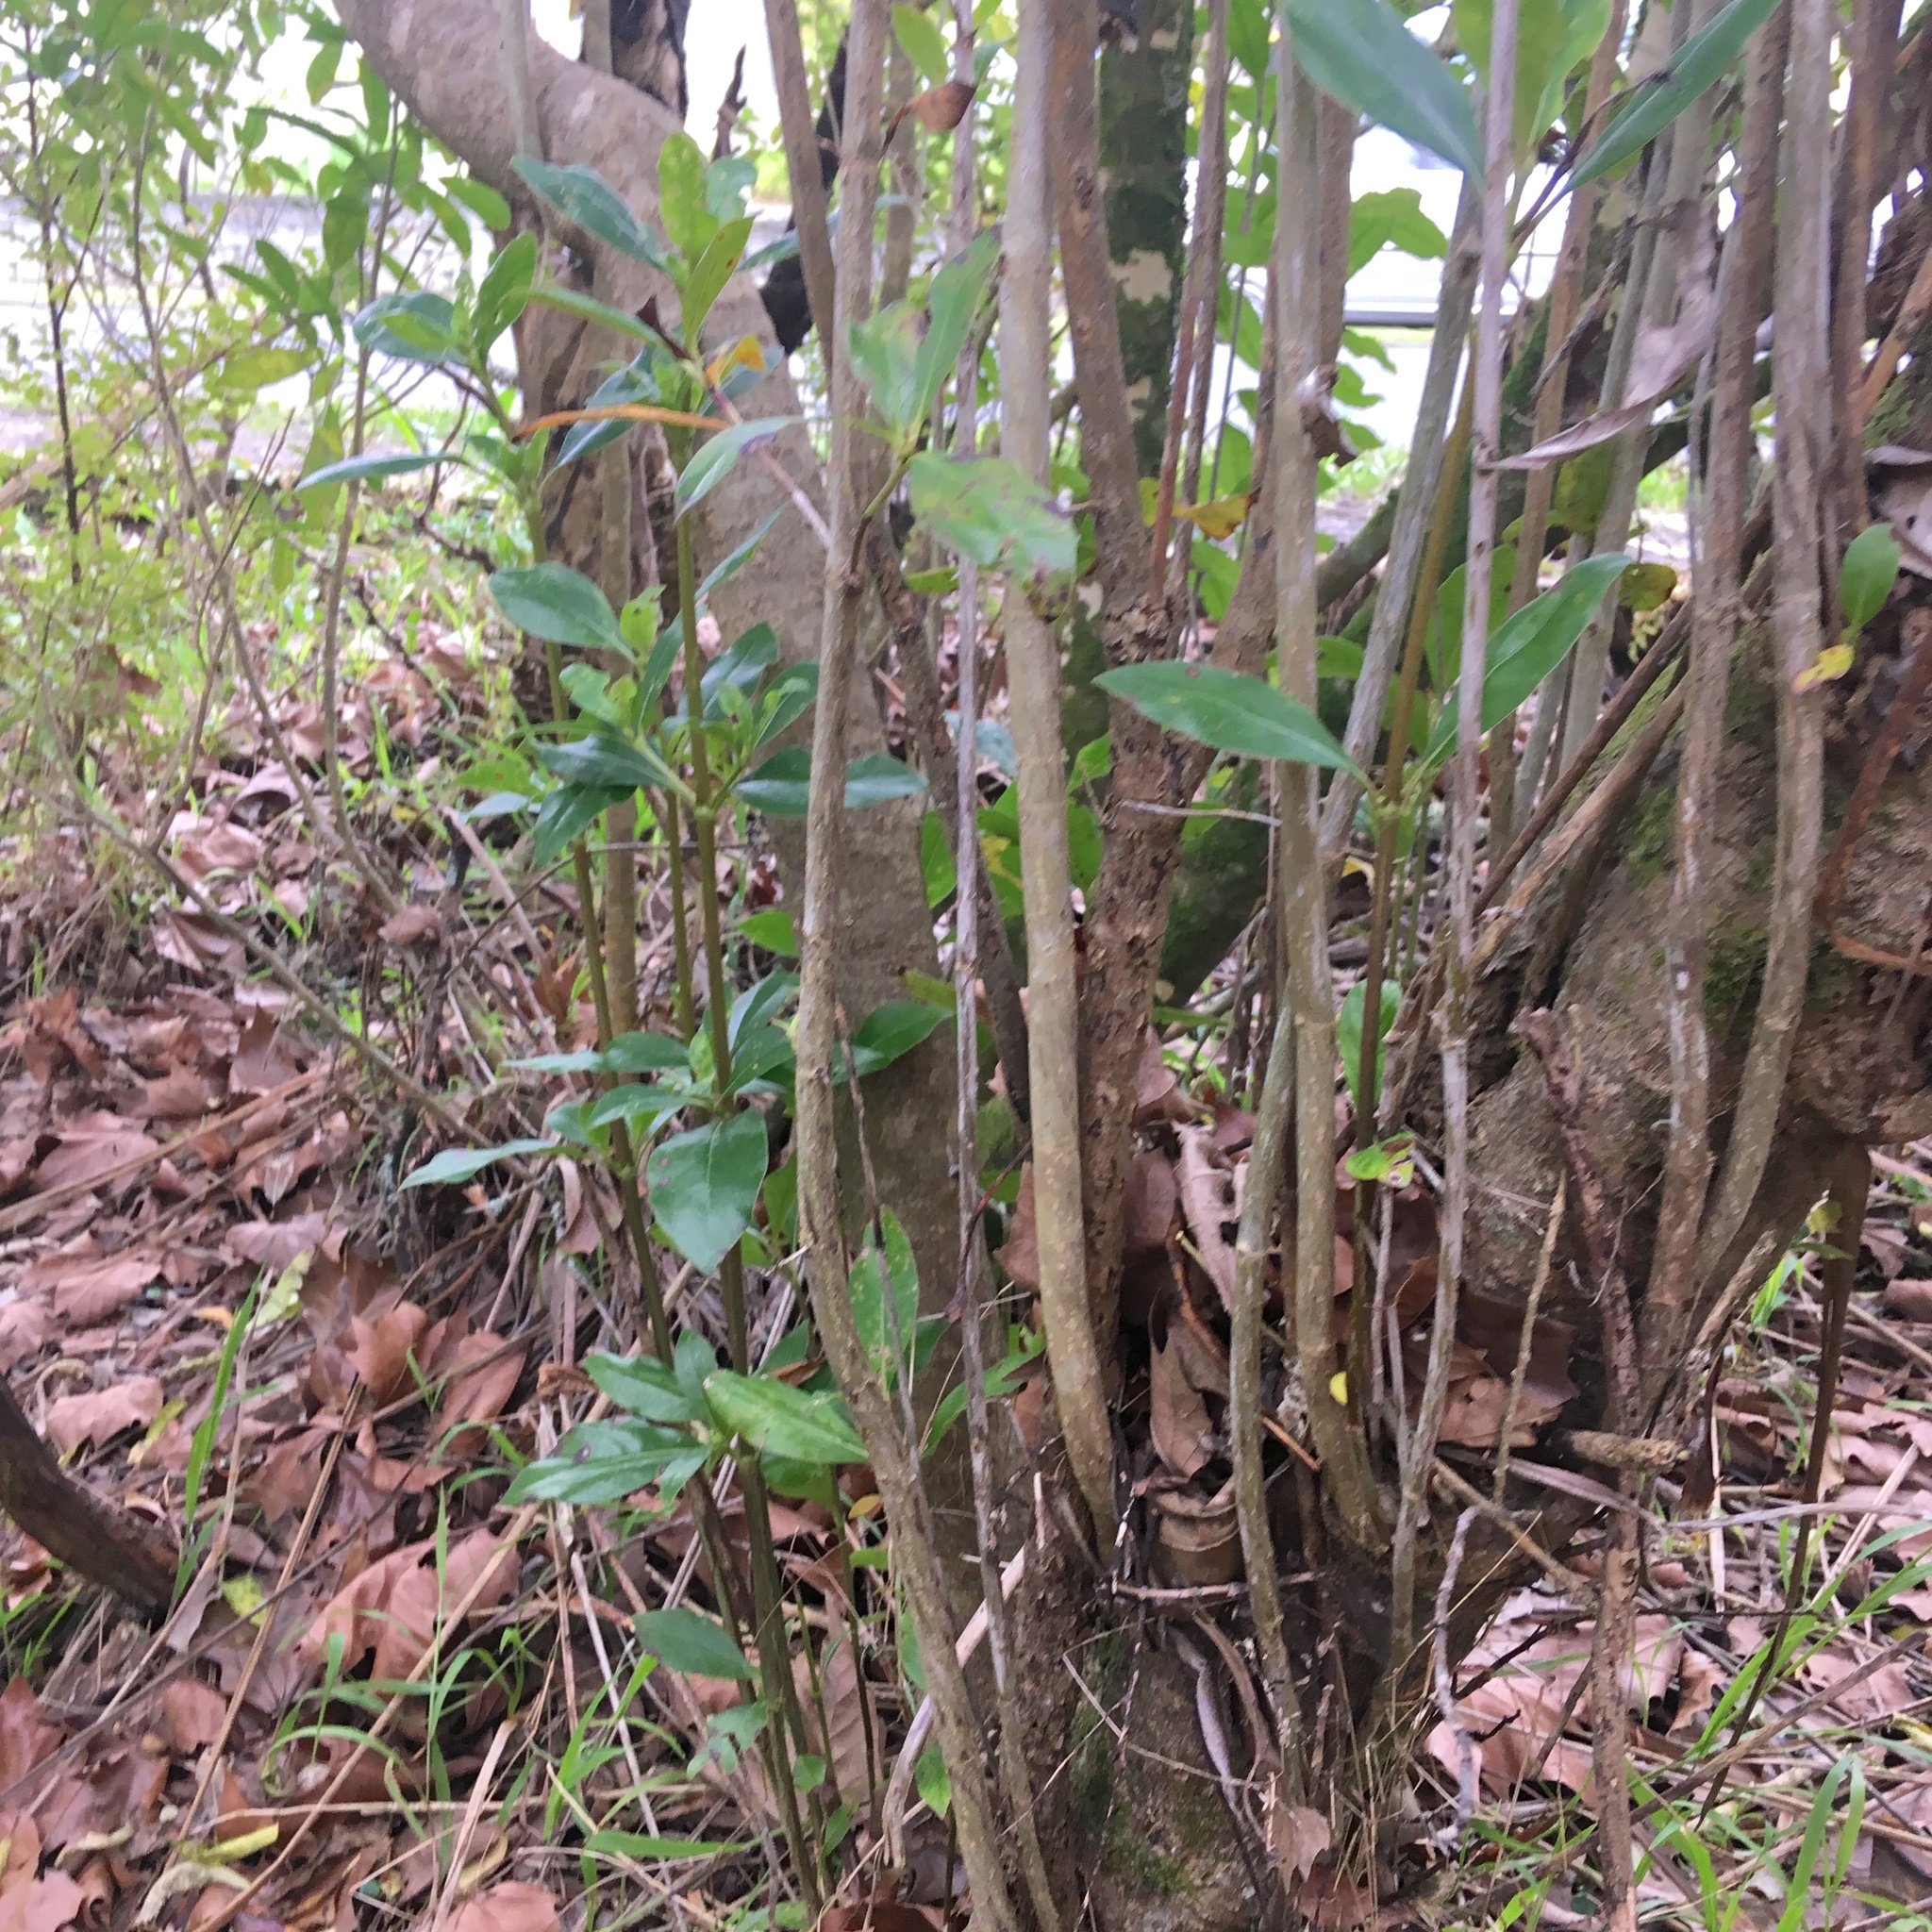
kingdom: Plantae
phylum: Tracheophyta
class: Magnoliopsida
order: Gentianales
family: Rubiaceae
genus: Coprosma
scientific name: Coprosma robusta
